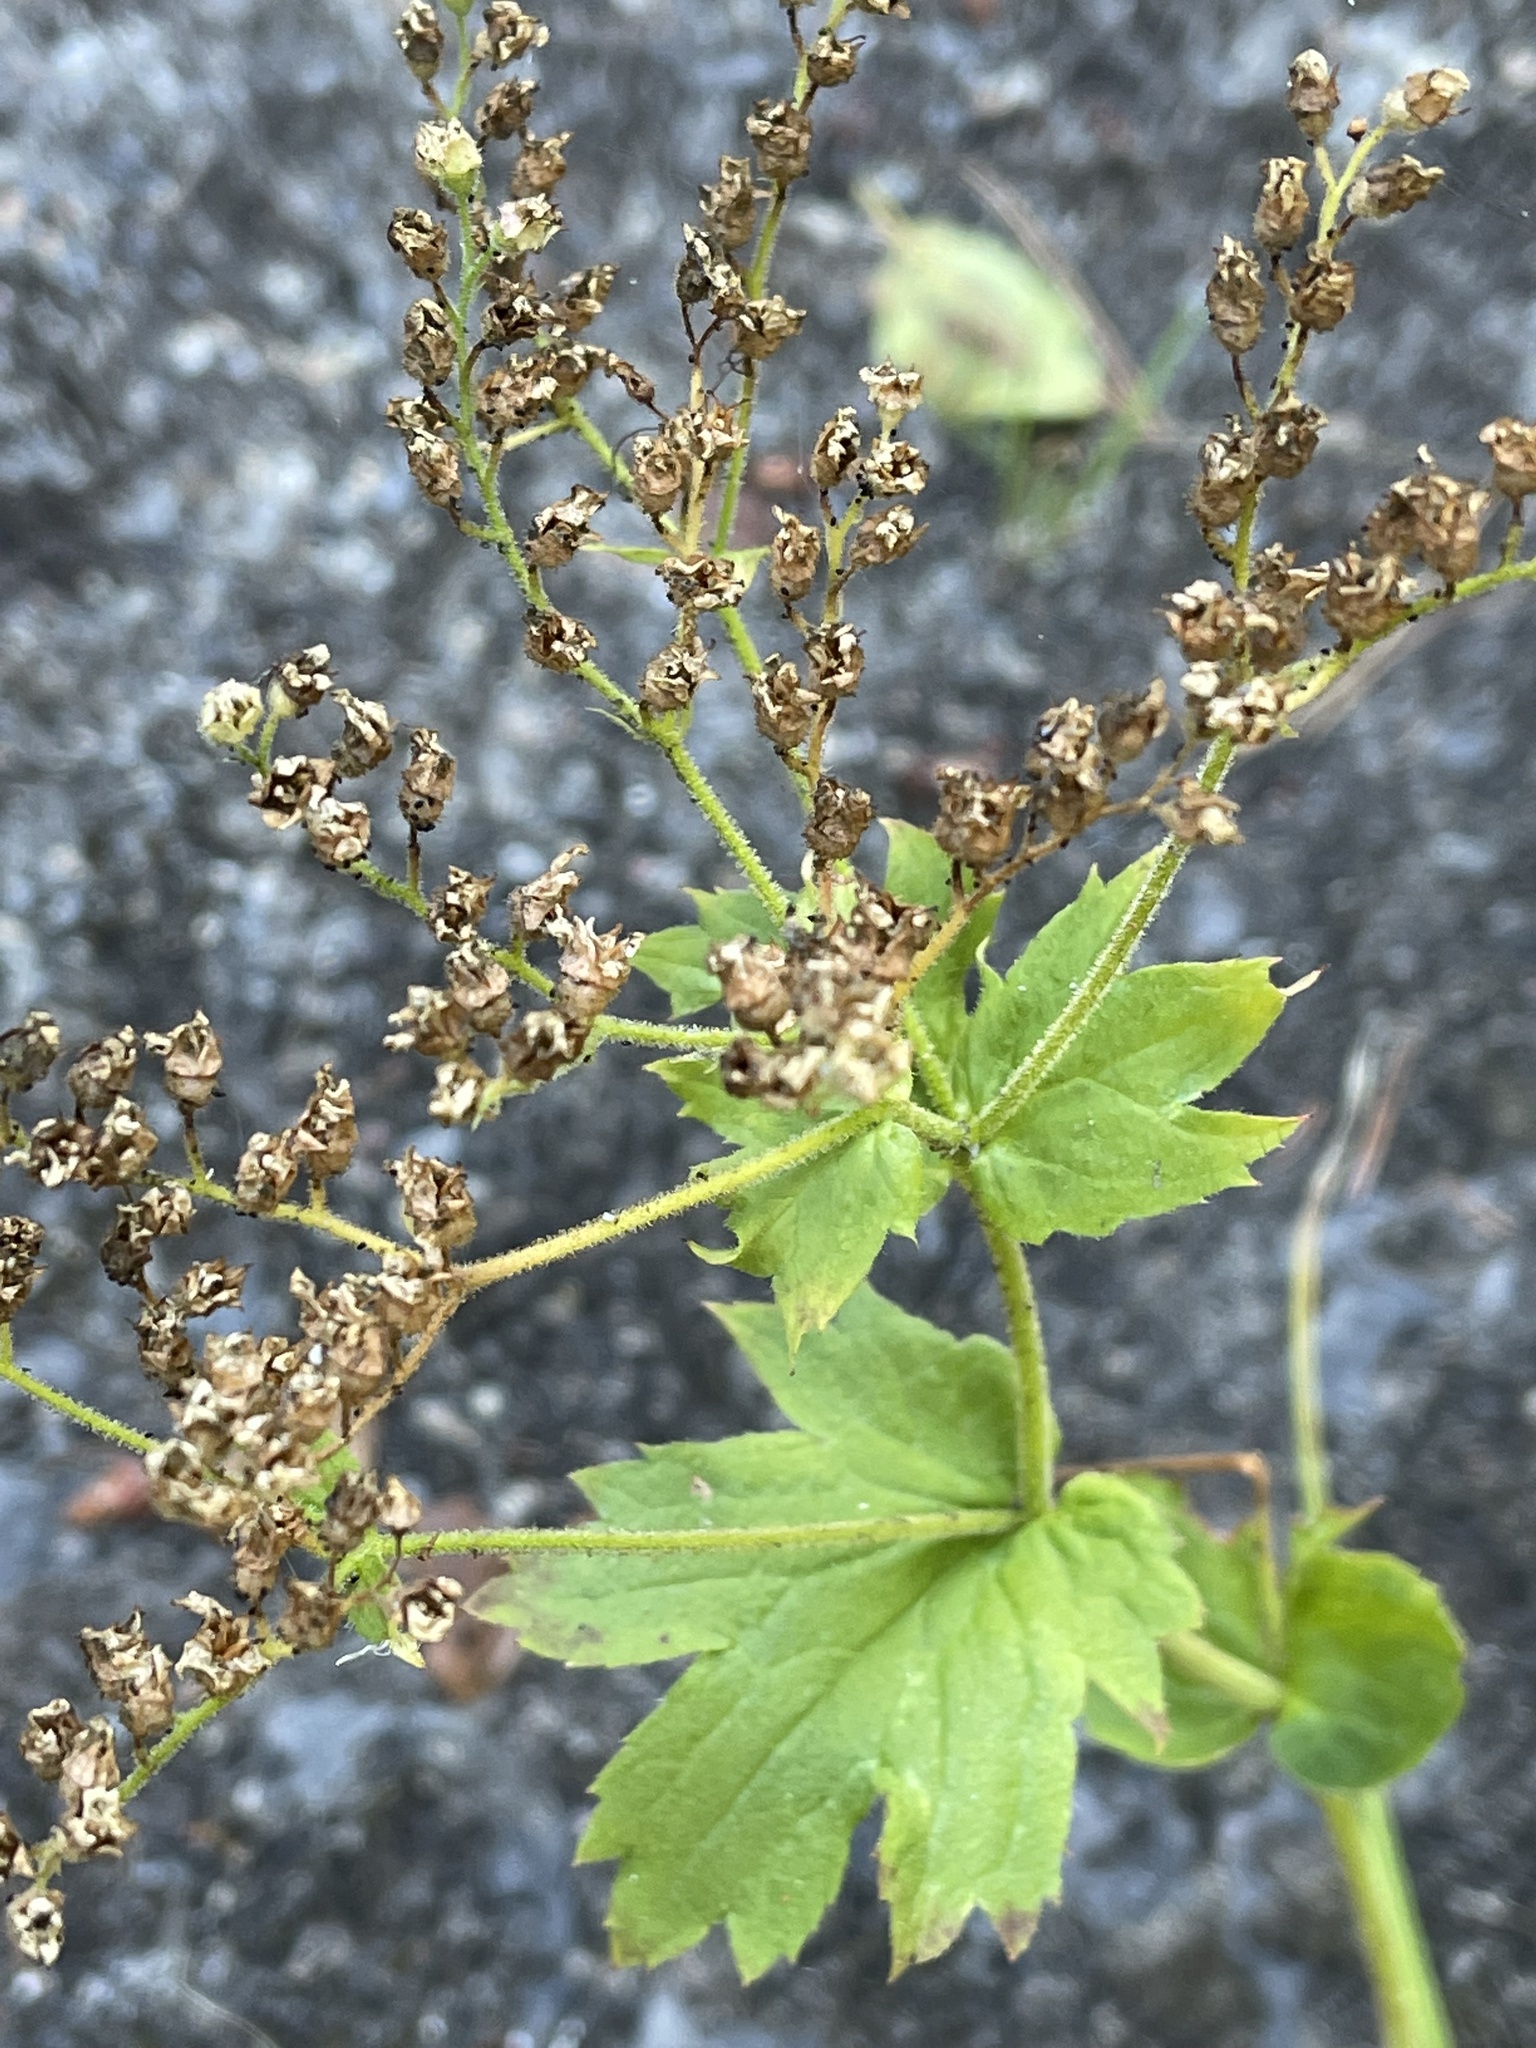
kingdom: Plantae
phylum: Tracheophyta
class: Magnoliopsida
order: Saxifragales
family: Saxifragaceae
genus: Boykinia
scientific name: Boykinia major
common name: Large boykinia
